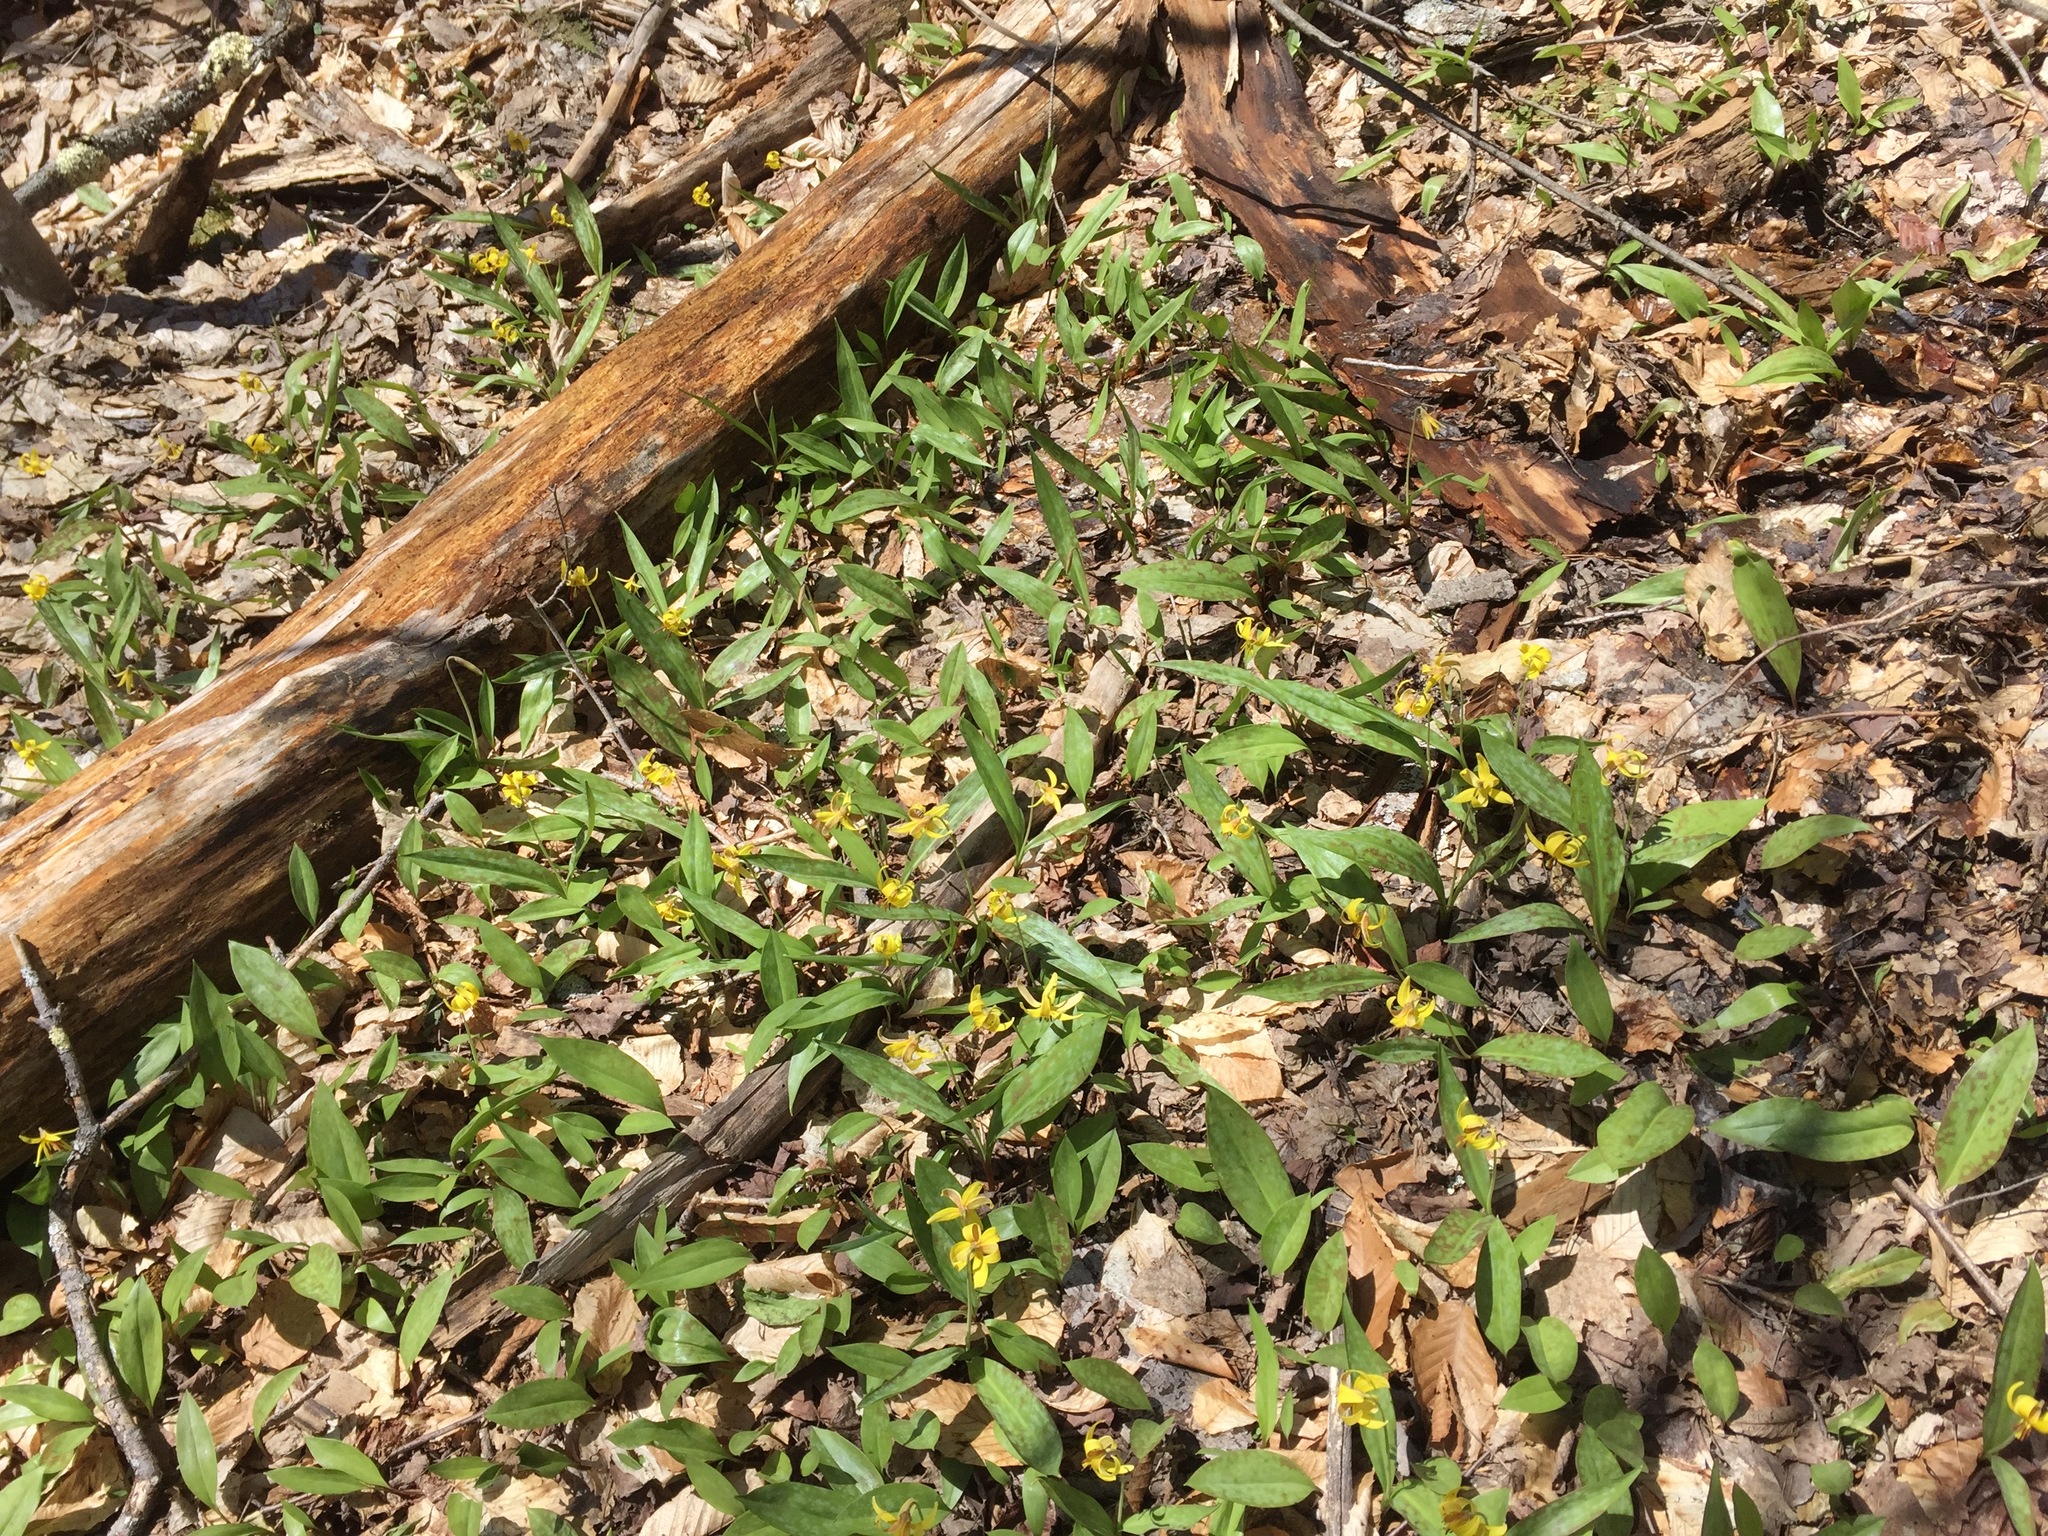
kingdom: Plantae
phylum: Tracheophyta
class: Liliopsida
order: Liliales
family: Liliaceae
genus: Erythronium
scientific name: Erythronium americanum
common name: Yellow adder's-tongue
